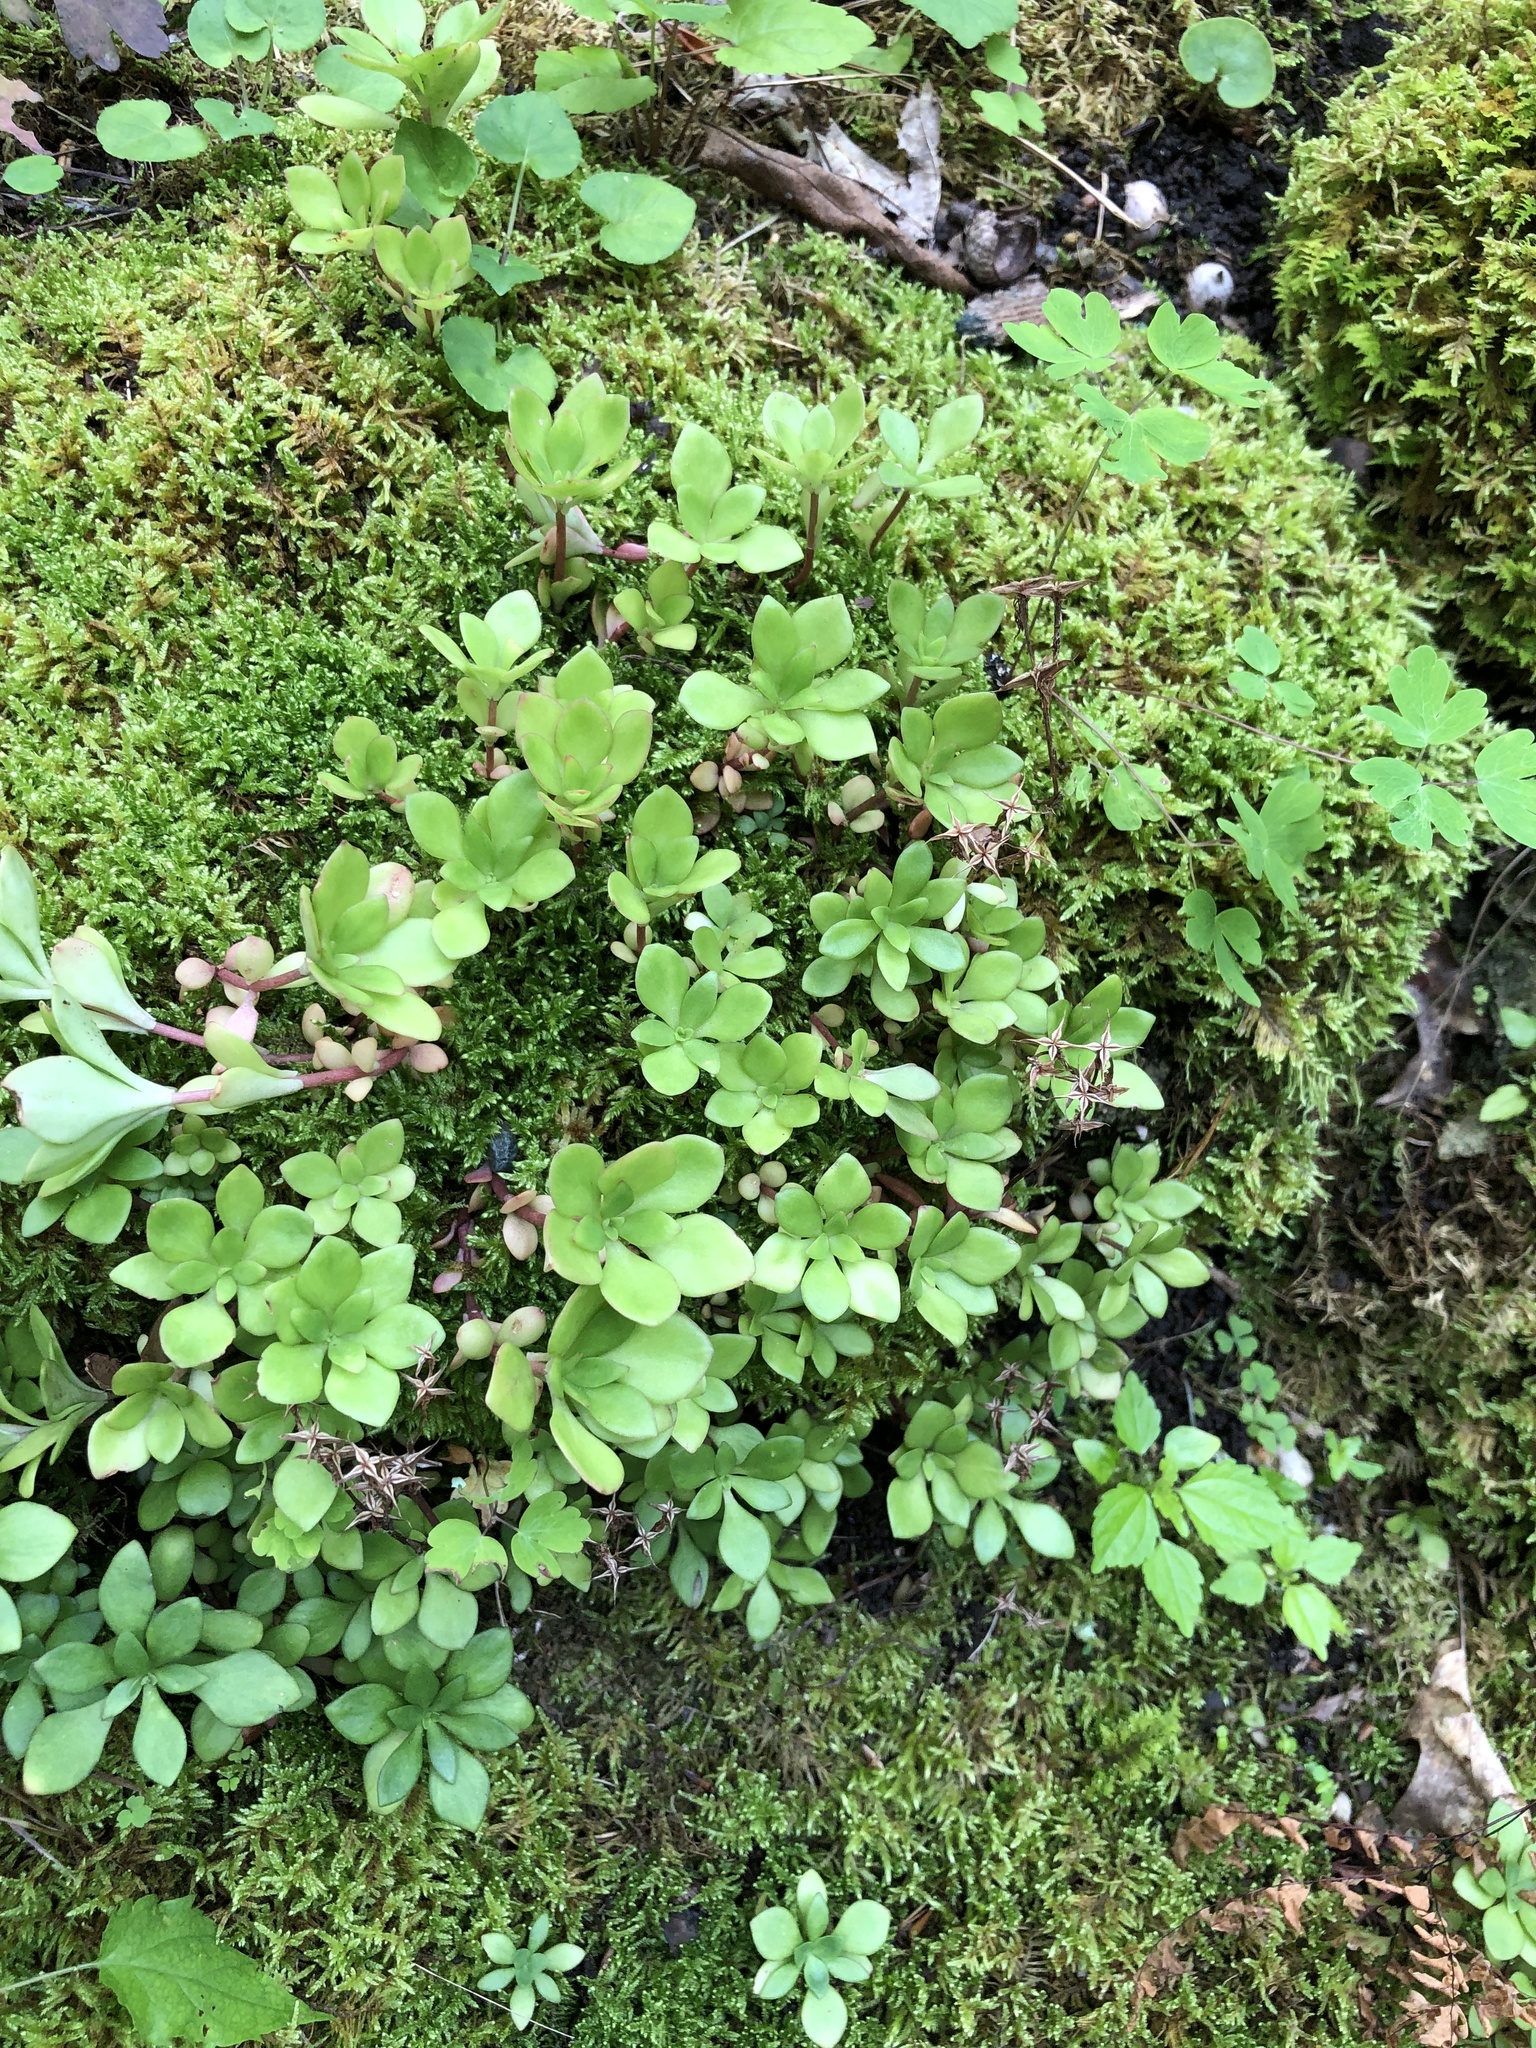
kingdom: Plantae
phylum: Tracheophyta
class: Magnoliopsida
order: Saxifragales
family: Crassulaceae
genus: Sedum
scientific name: Sedum ternatum
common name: Wild stonecrop
